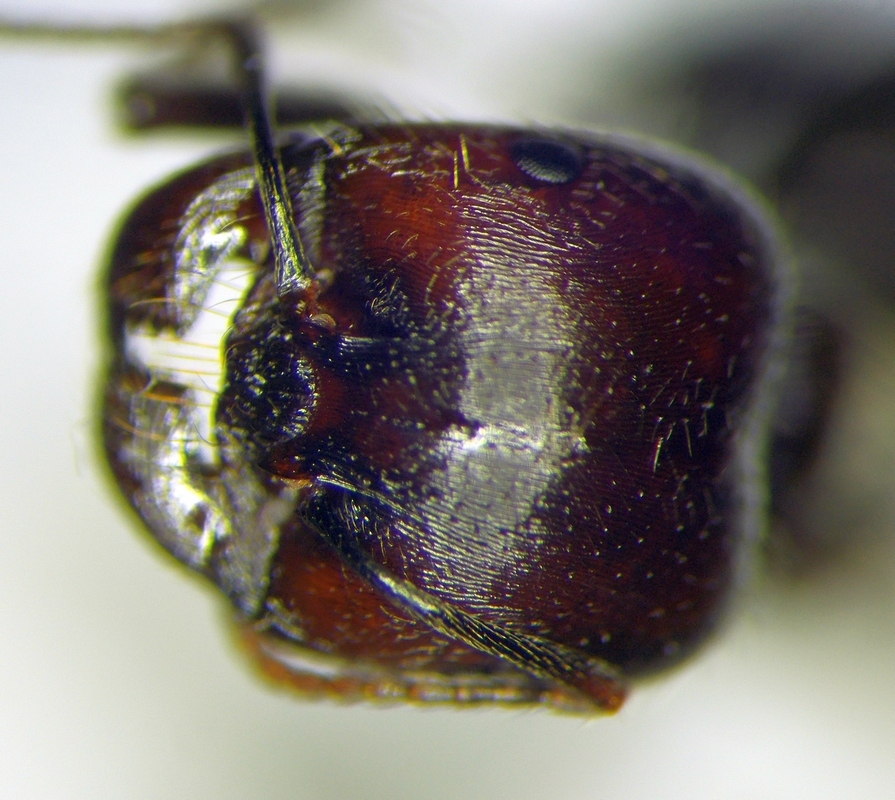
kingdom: Animalia
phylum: Arthropoda
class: Insecta
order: Hymenoptera
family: Formicidae
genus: Messor
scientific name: Messor orientalis
